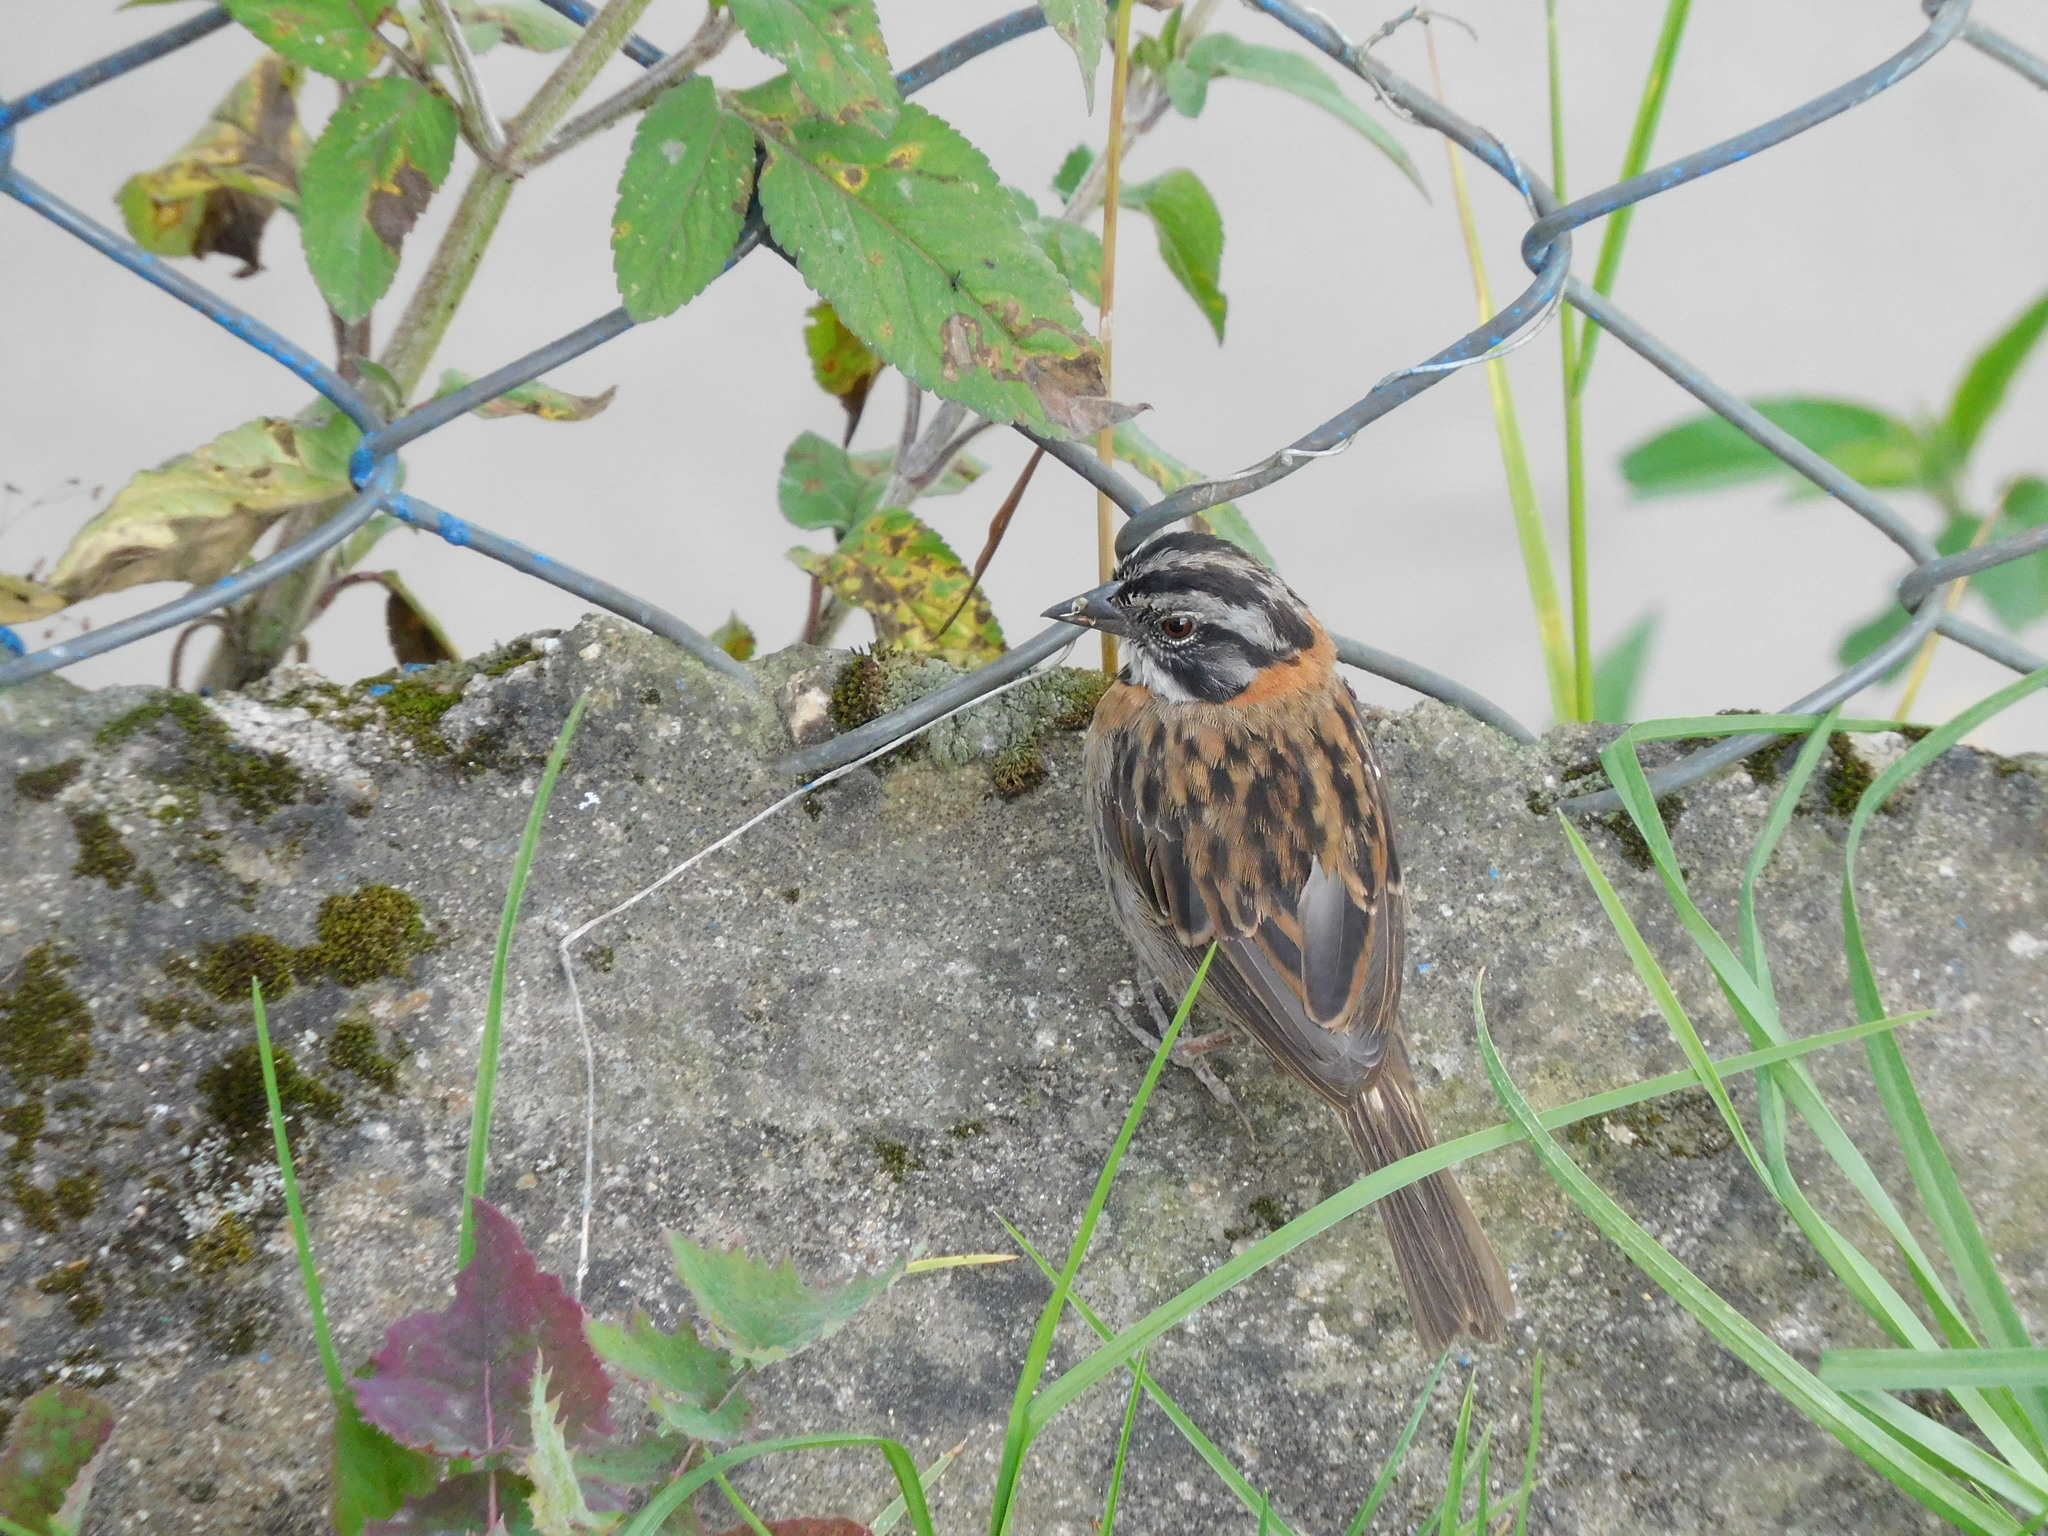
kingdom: Animalia
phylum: Chordata
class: Aves
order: Passeriformes
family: Passerellidae
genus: Zonotrichia
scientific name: Zonotrichia capensis
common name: Rufous-collared sparrow
